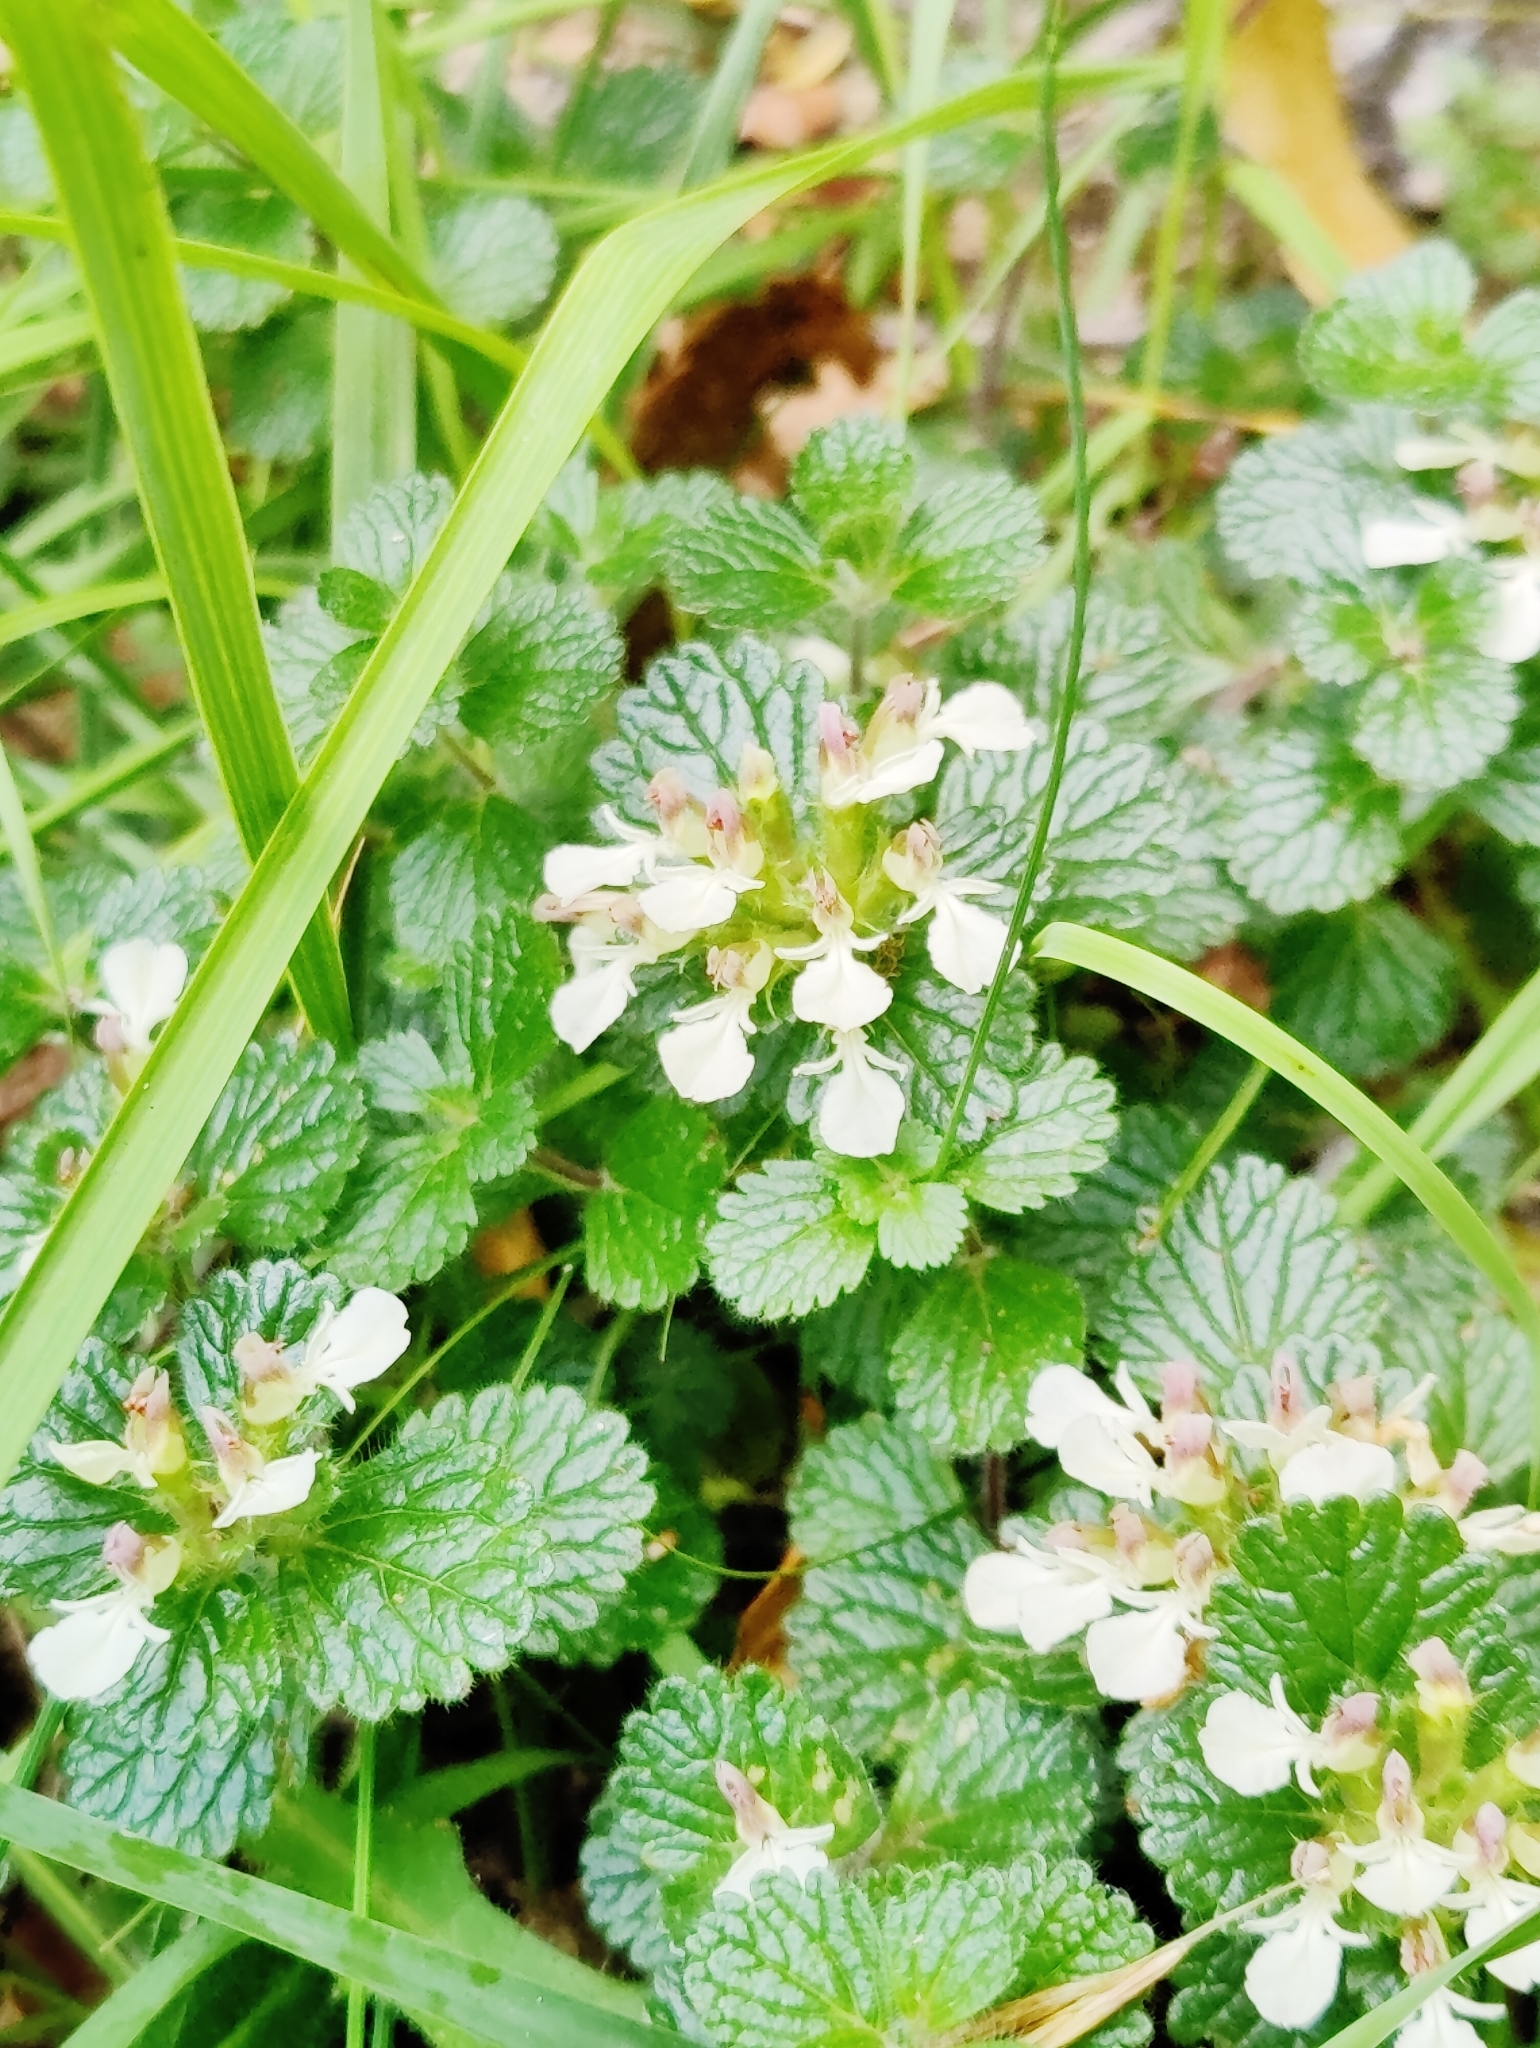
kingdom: Plantae
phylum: Tracheophyta
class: Magnoliopsida
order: Lamiales
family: Lamiaceae
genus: Teucrium
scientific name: Teucrium pyrenaicum
